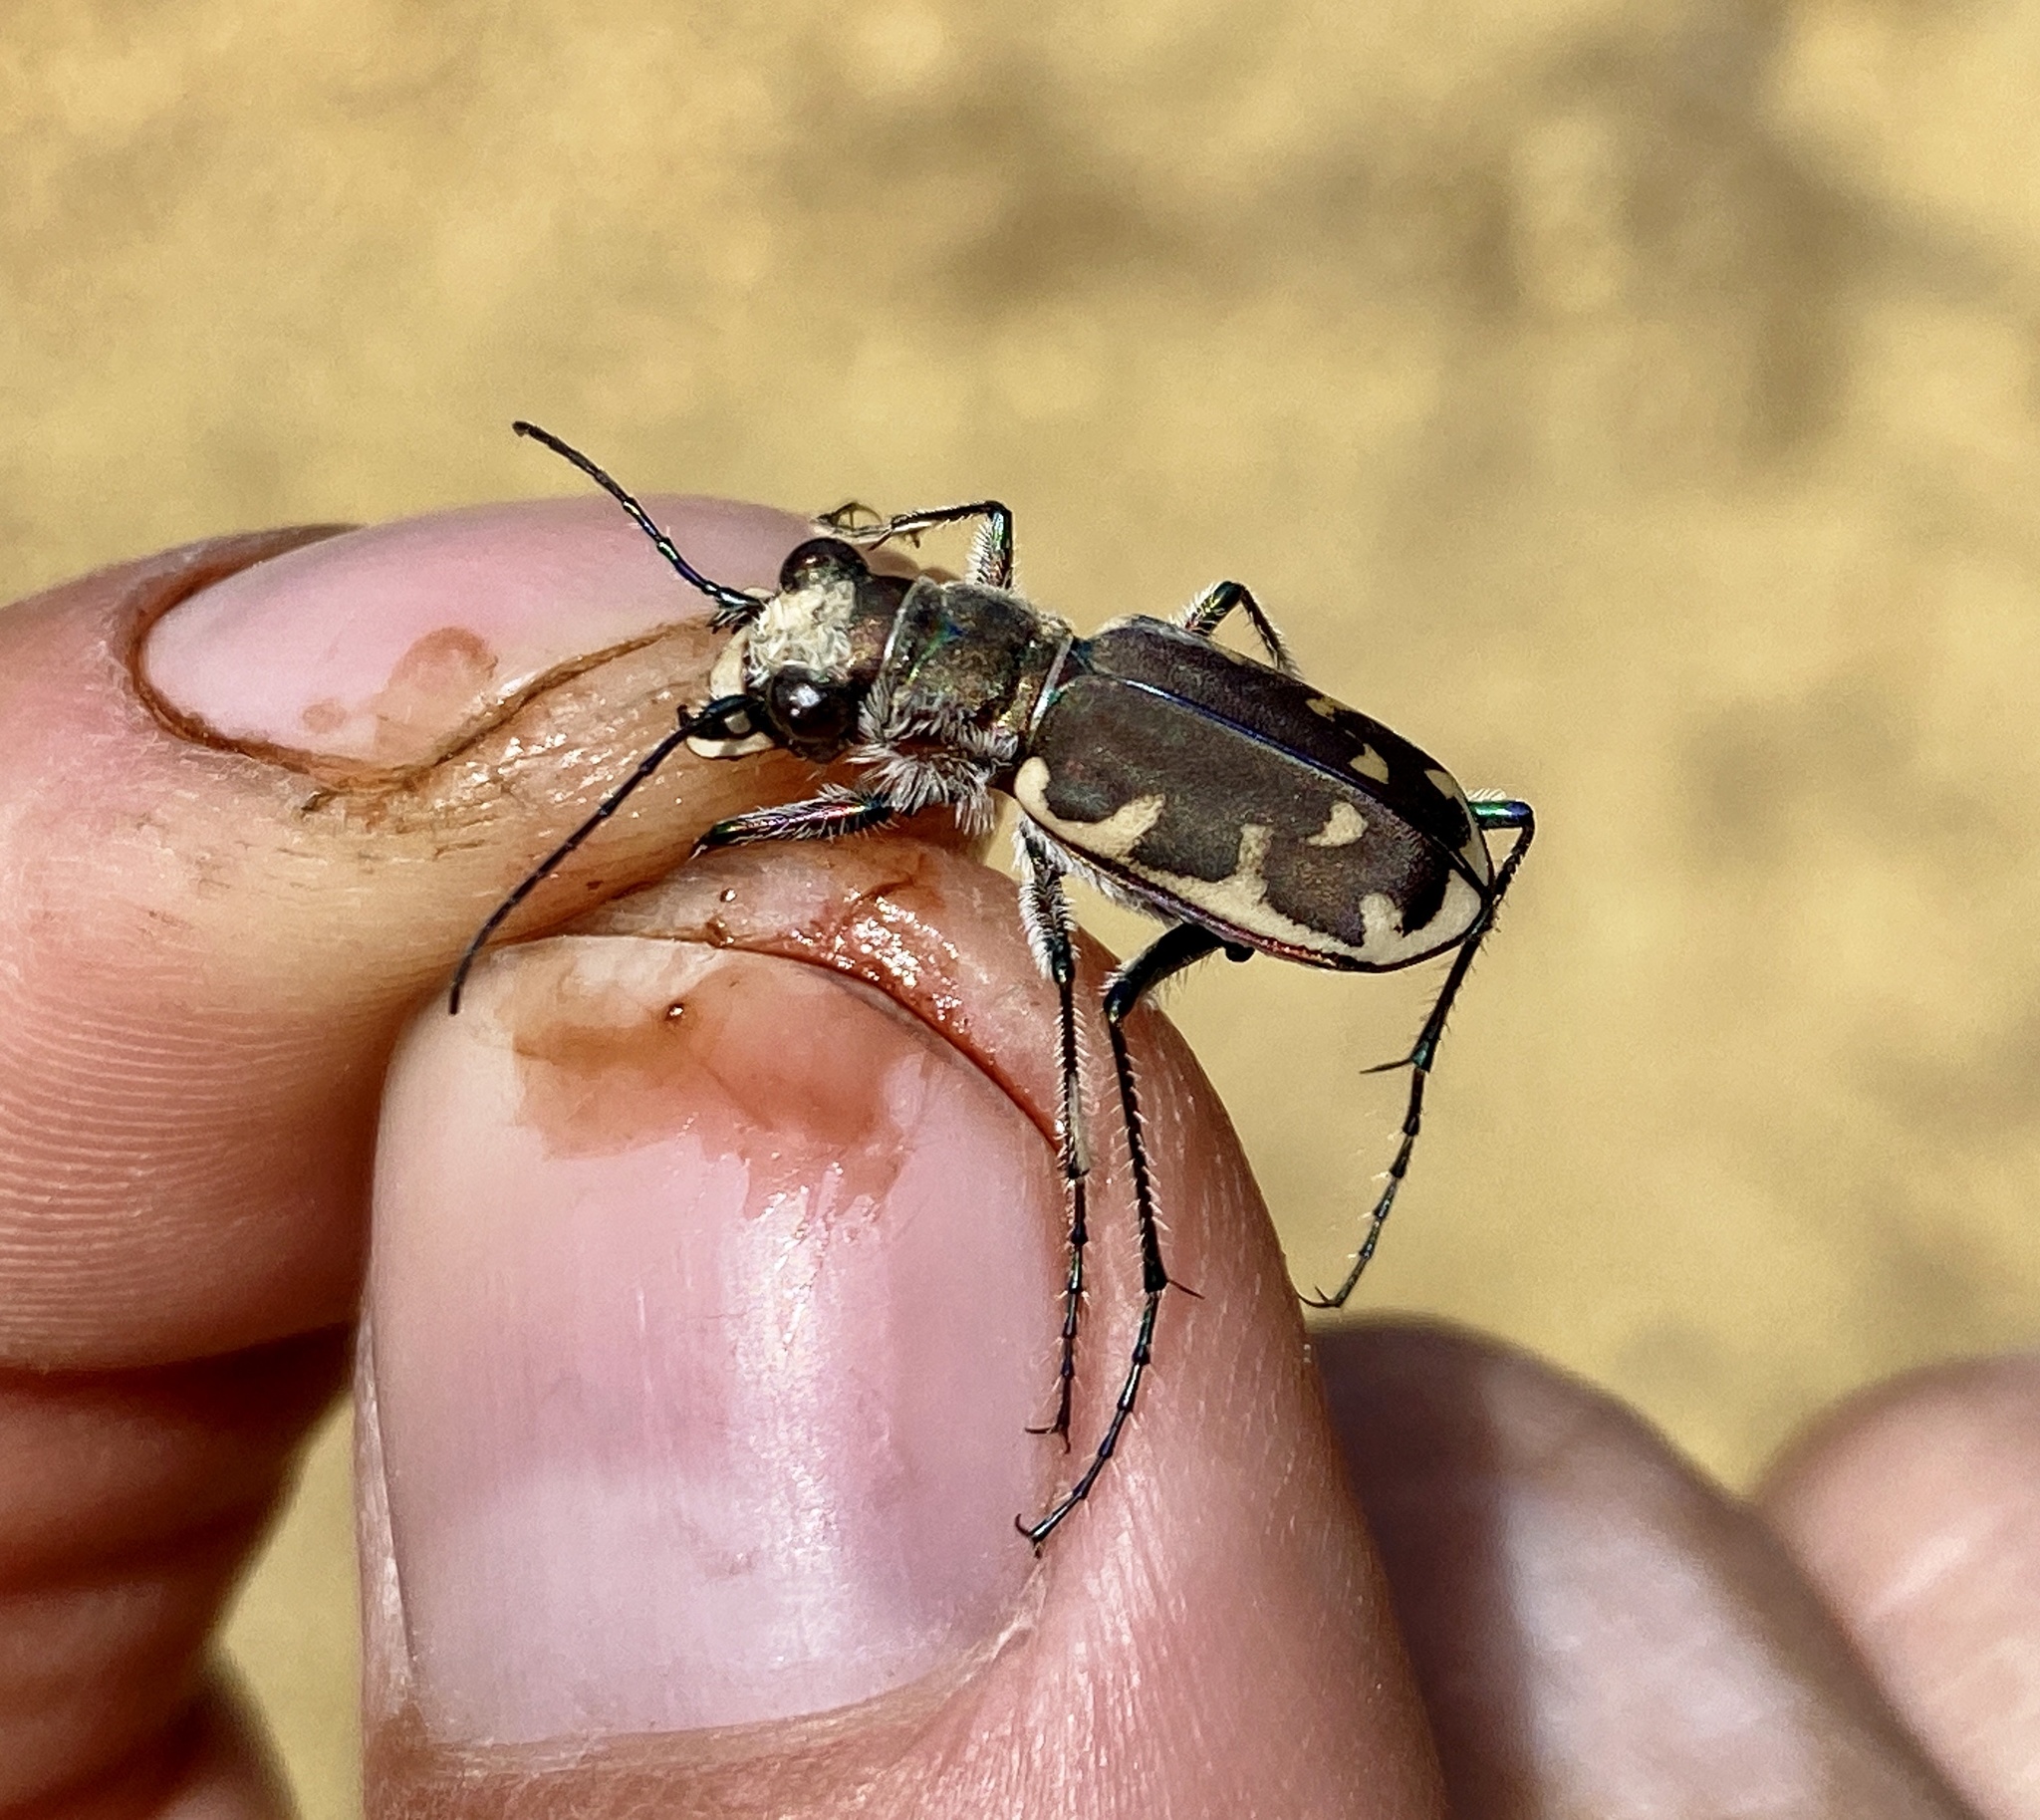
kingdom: Animalia
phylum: Arthropoda
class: Insecta
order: Coleoptera
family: Carabidae
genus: Cicindela
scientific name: Cicindela formosa
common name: Big sand tiger beetle
